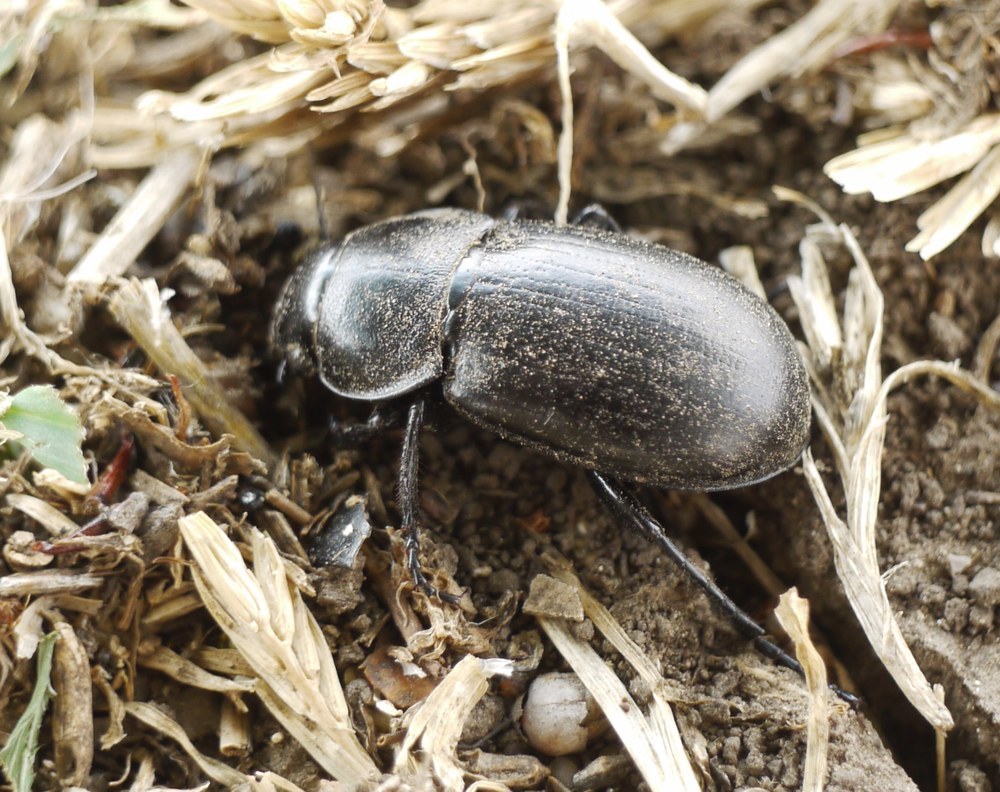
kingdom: Animalia
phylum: Arthropoda
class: Insecta
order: Coleoptera
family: Carabidae
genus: Zabrus
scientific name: Zabrus spinipes
